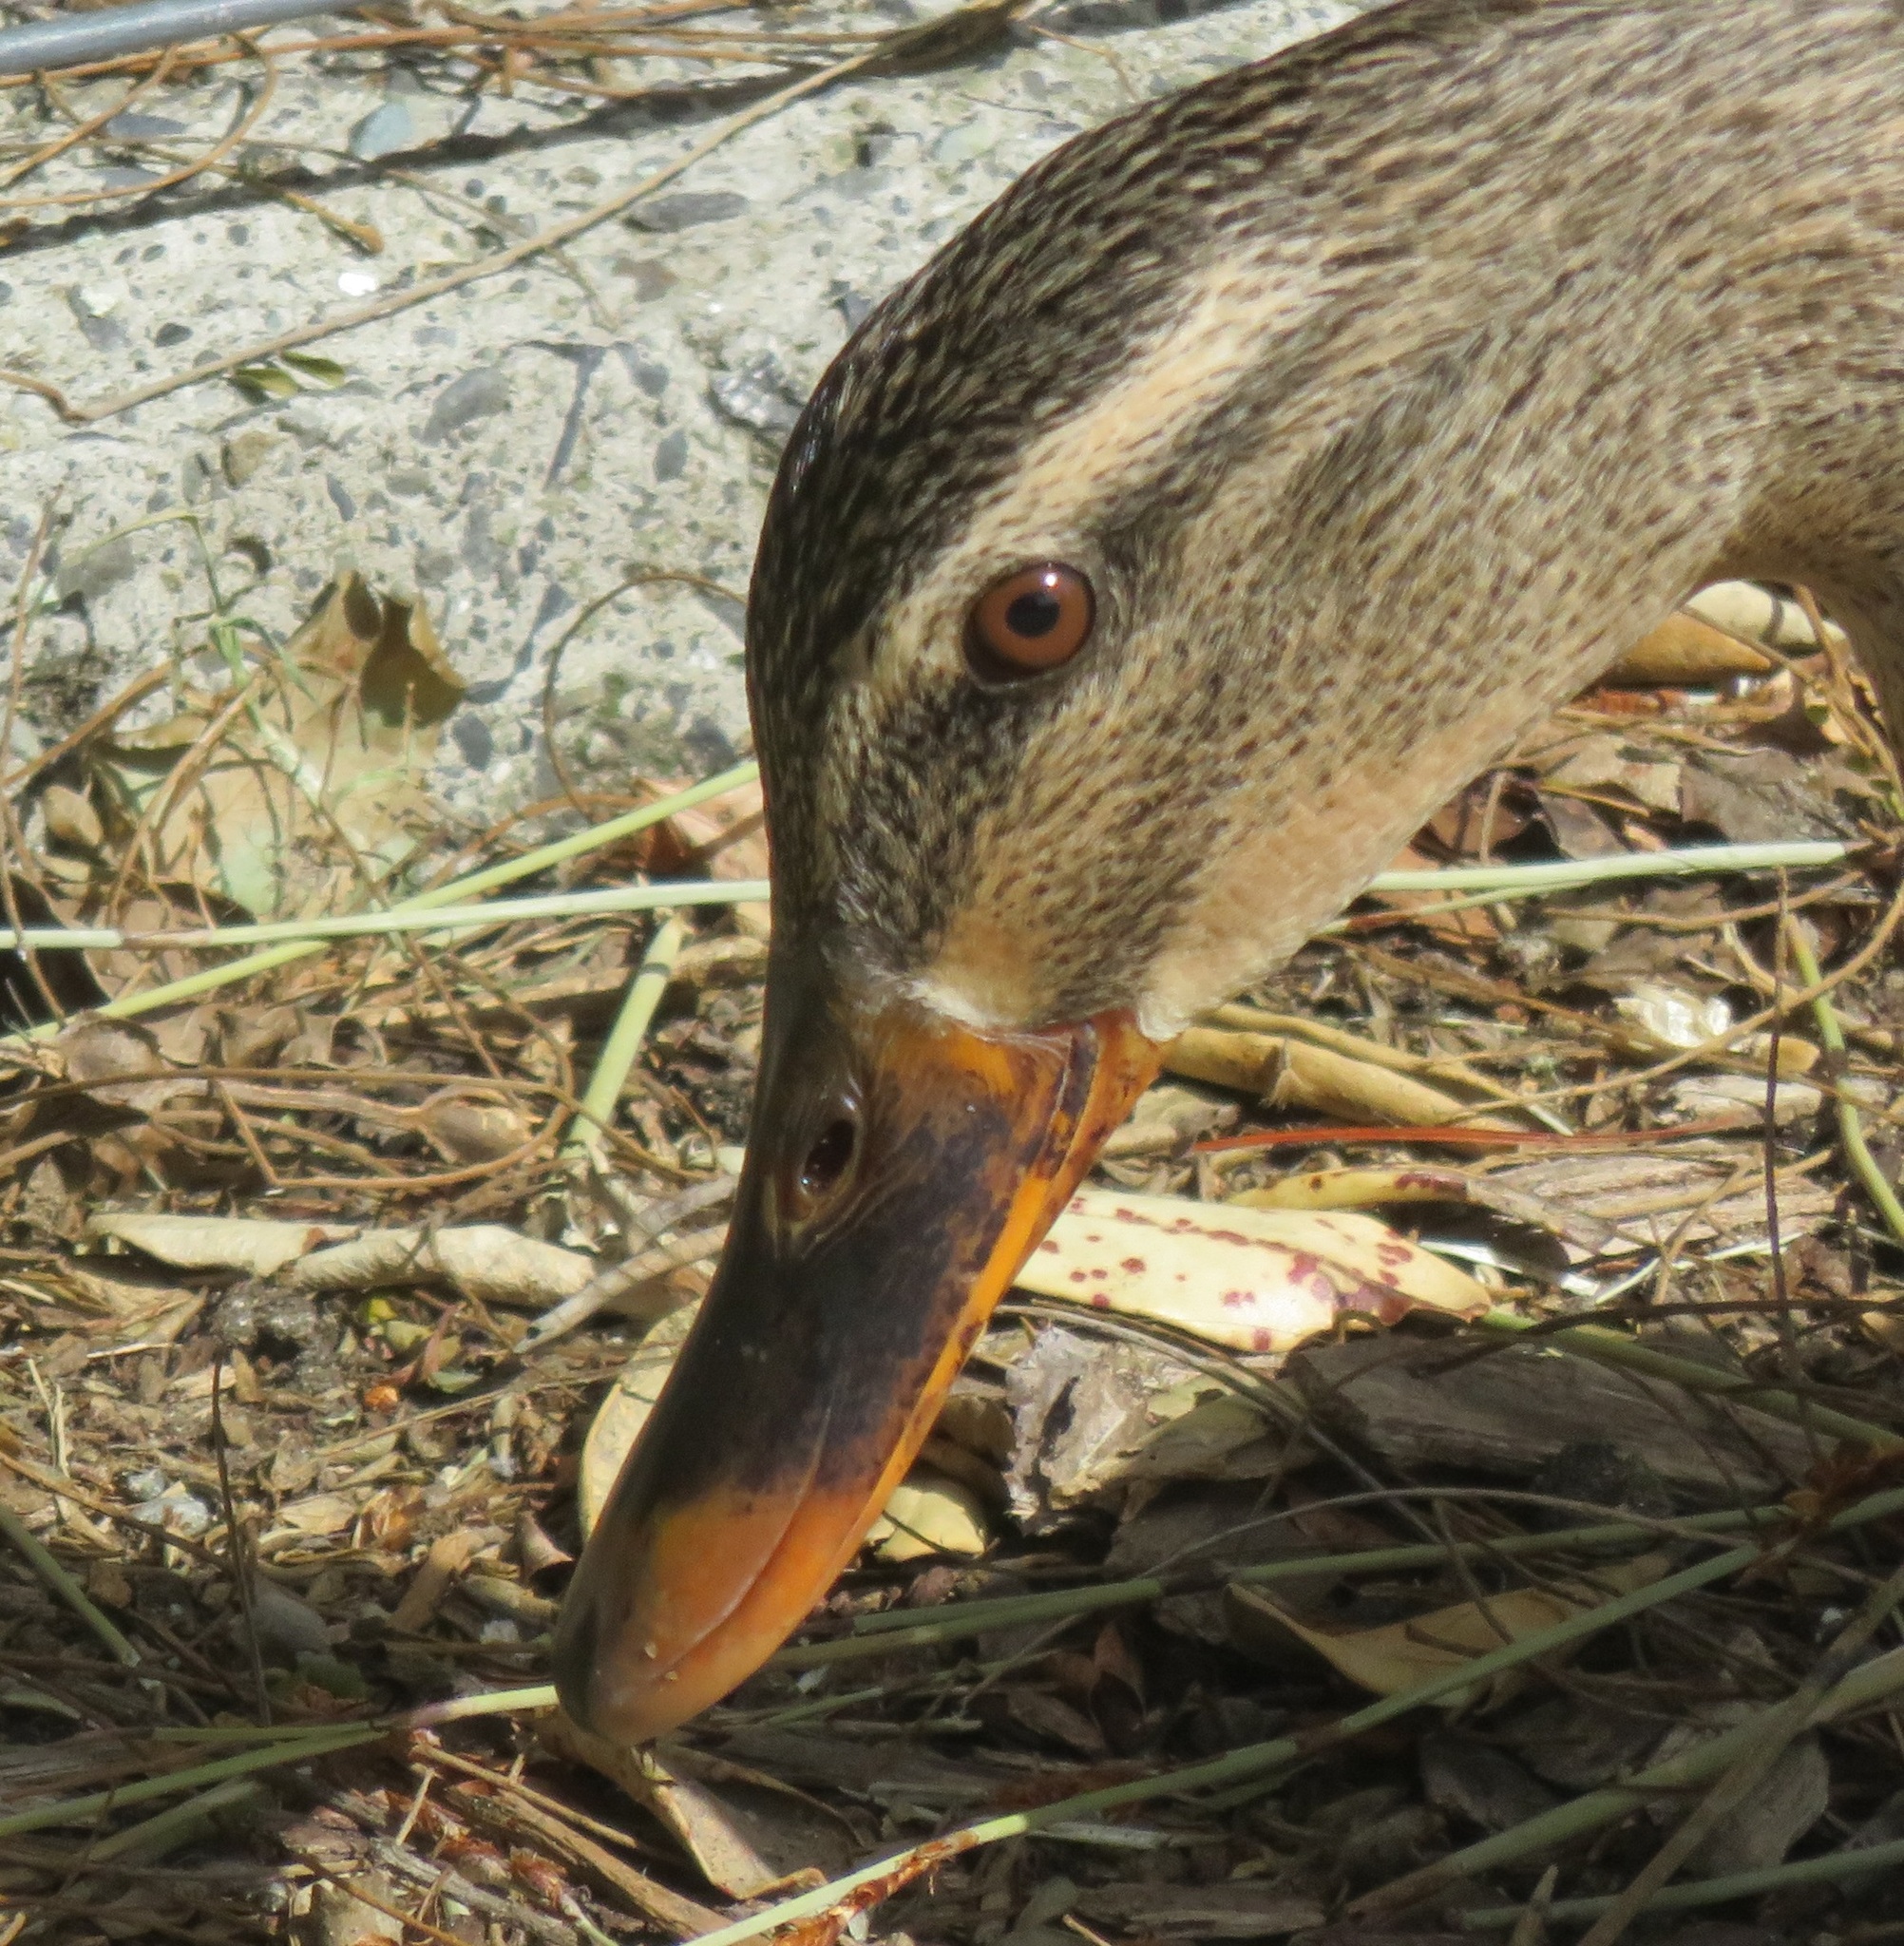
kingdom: Animalia
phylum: Chordata
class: Aves
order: Anseriformes
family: Anatidae
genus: Anas
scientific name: Anas
